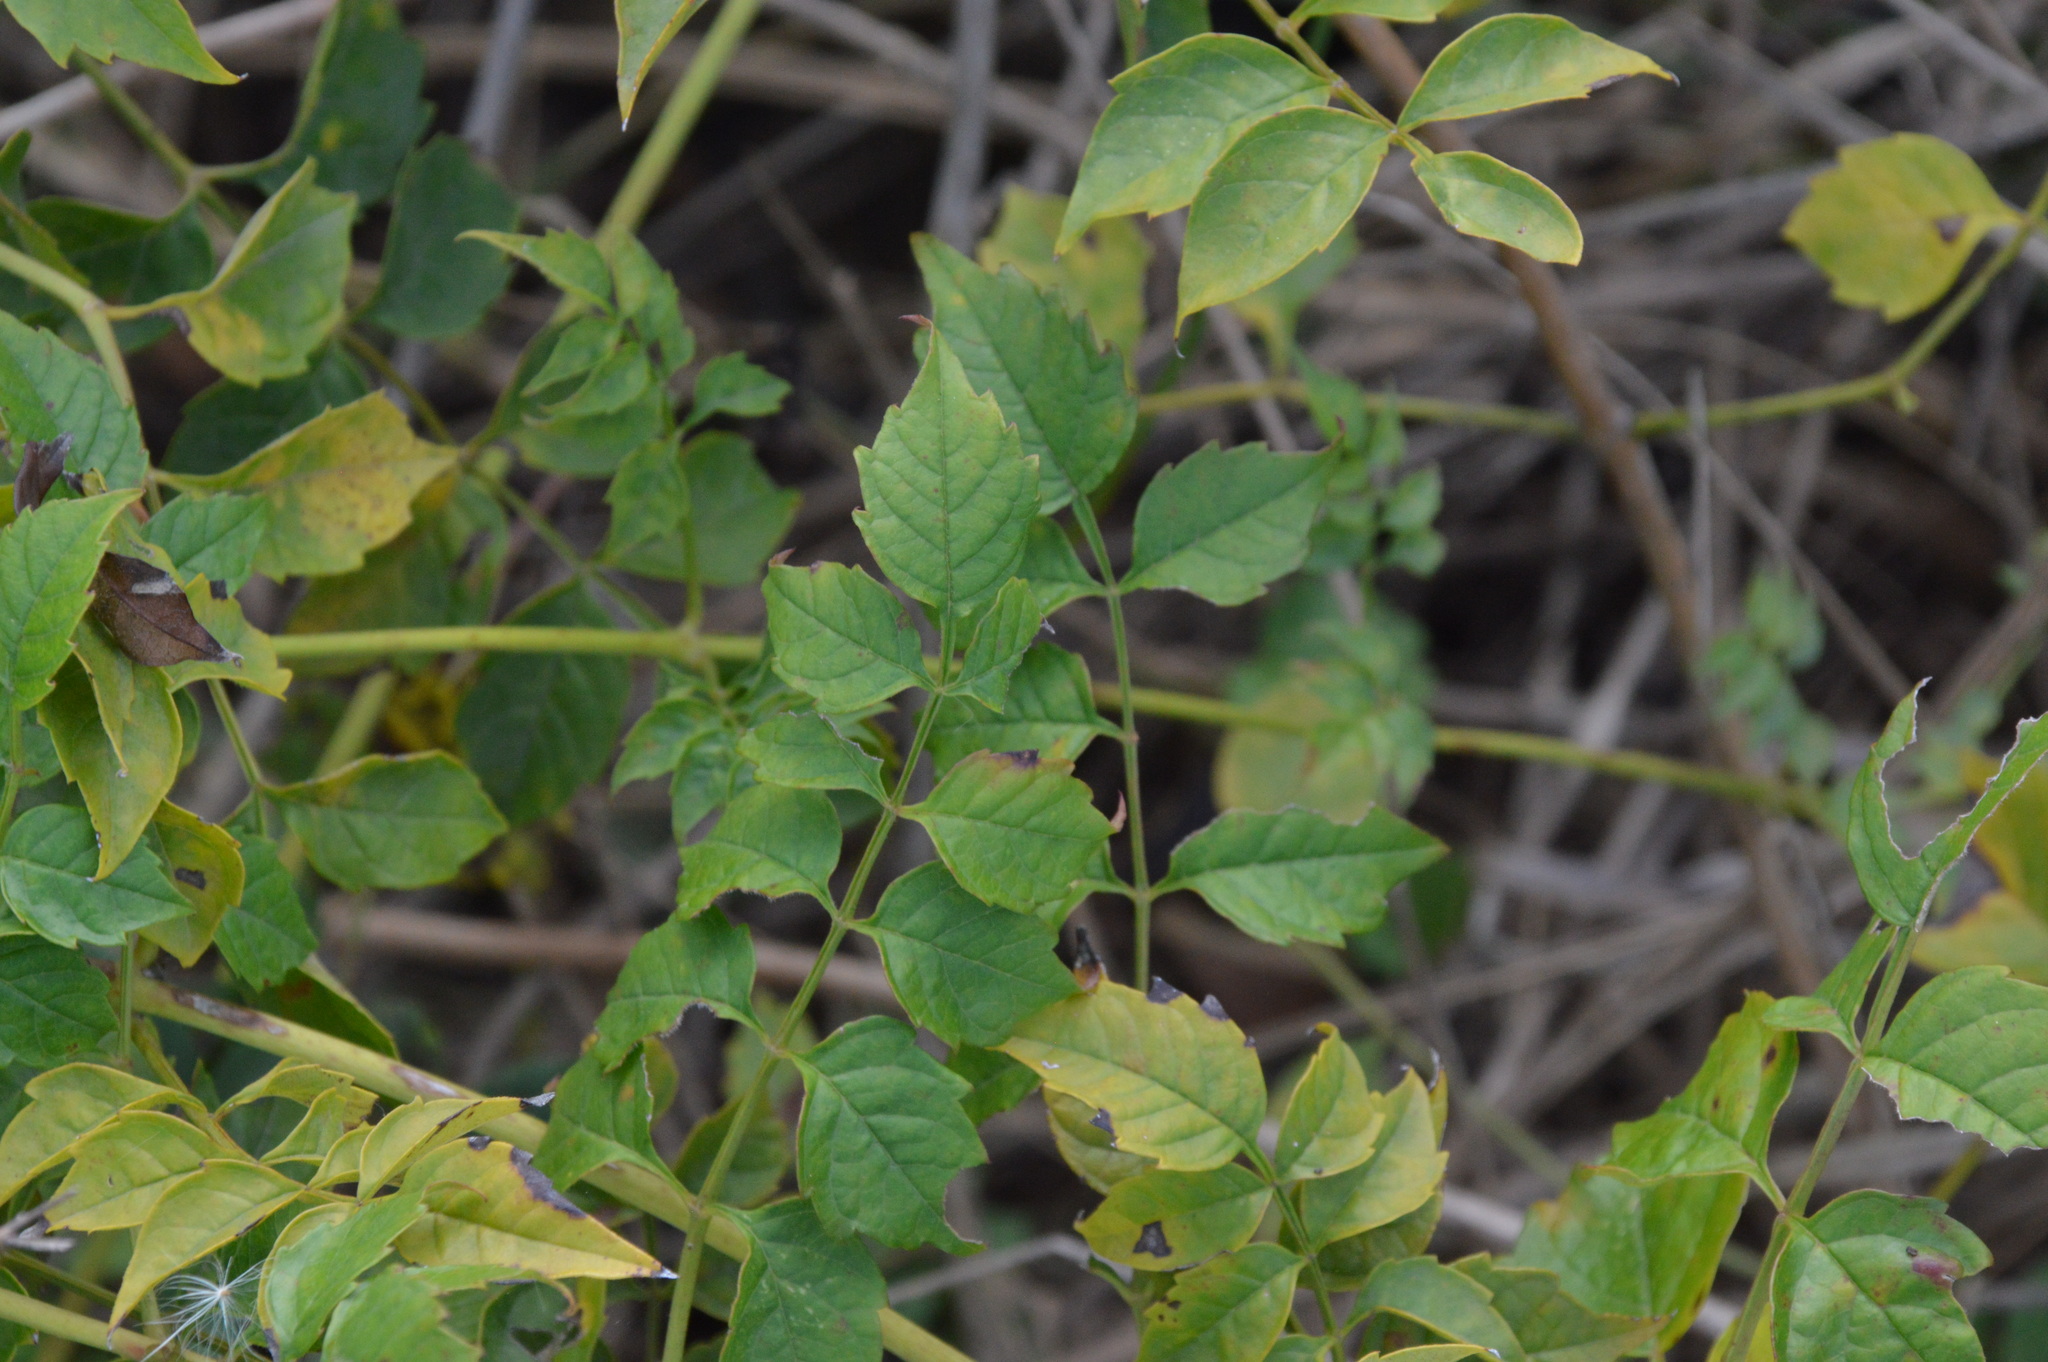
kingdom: Plantae
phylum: Tracheophyta
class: Magnoliopsida
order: Lamiales
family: Bignoniaceae
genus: Campsis
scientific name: Campsis radicans
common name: Trumpet-creeper
